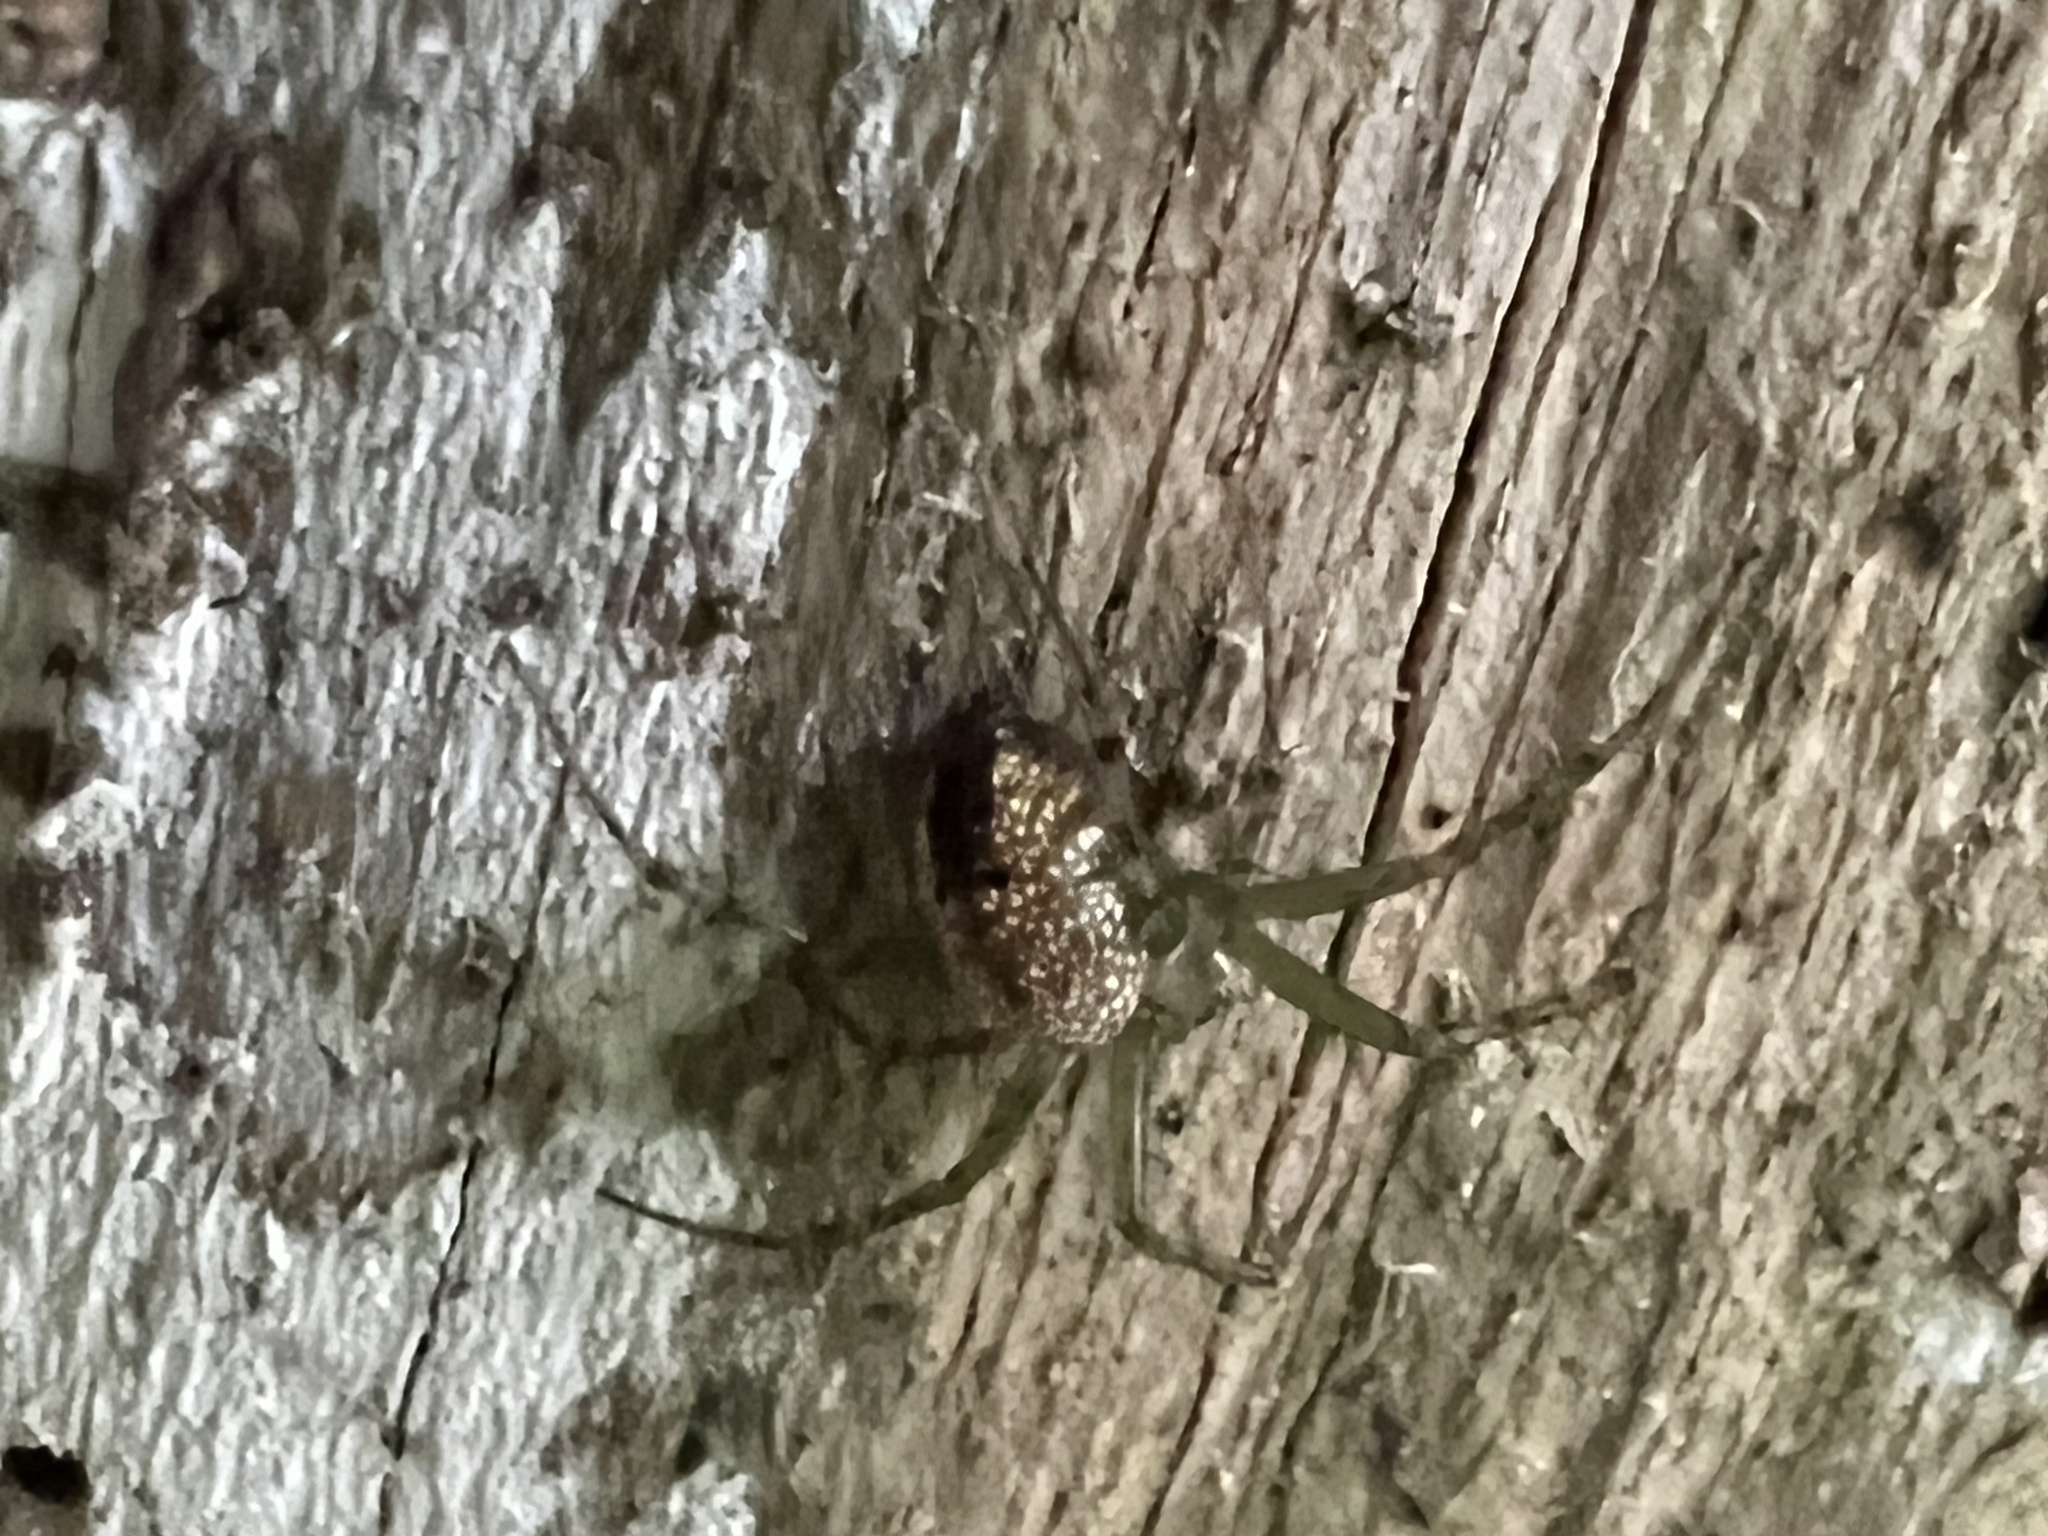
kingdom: Animalia
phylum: Arthropoda
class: Arachnida
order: Araneae
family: Araneidae
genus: Mangora
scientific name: Mangora spiculata
